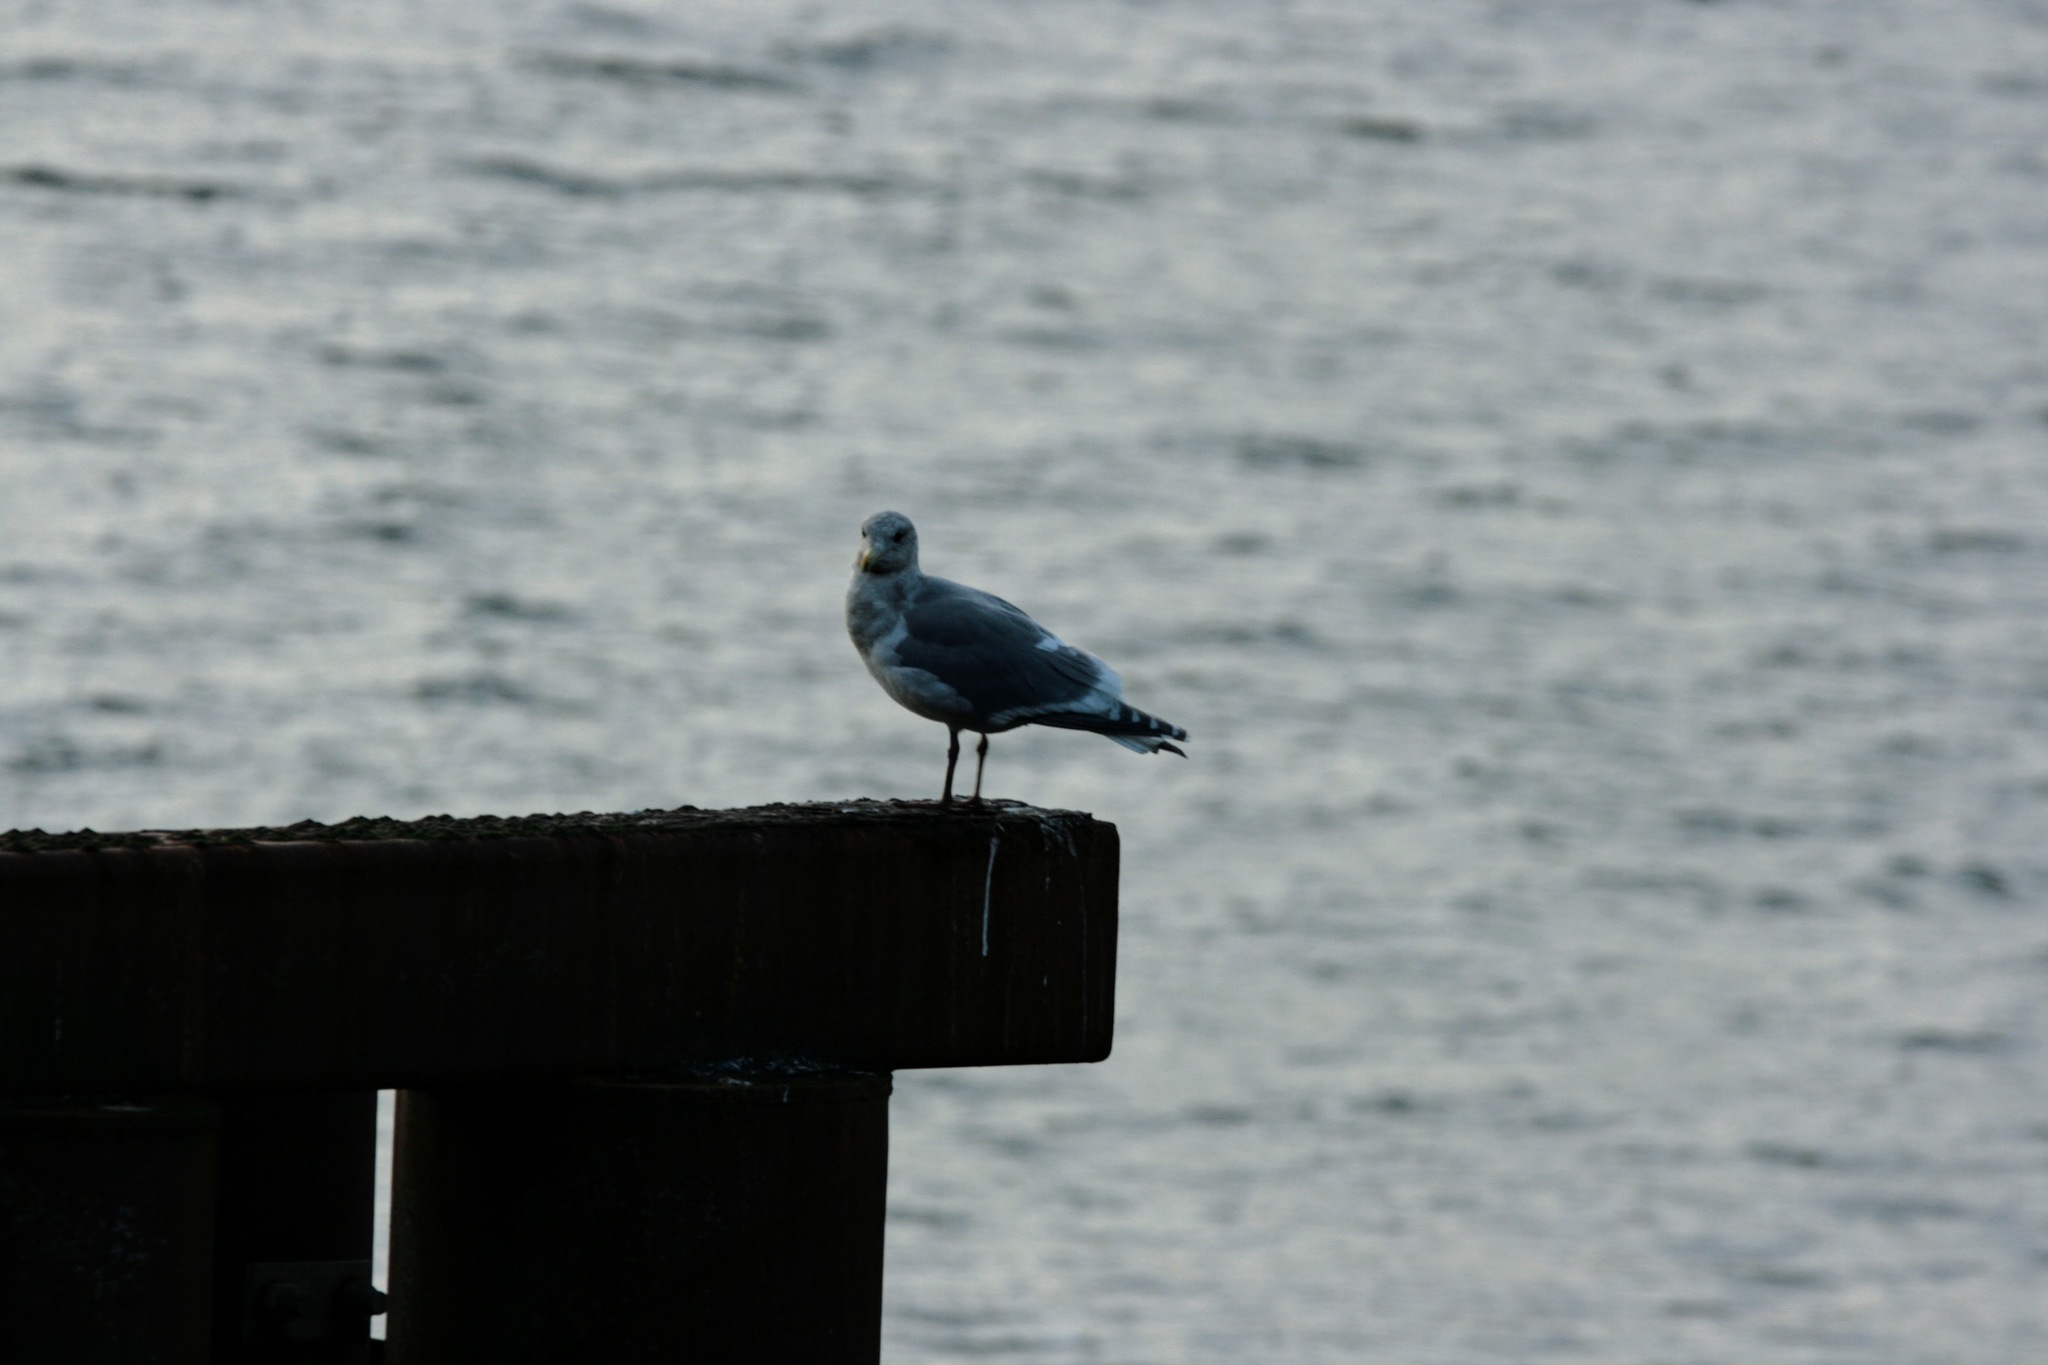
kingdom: Animalia
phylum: Chordata
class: Aves
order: Charadriiformes
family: Laridae
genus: Larus
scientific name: Larus glaucescens
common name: Glaucous-winged gull
